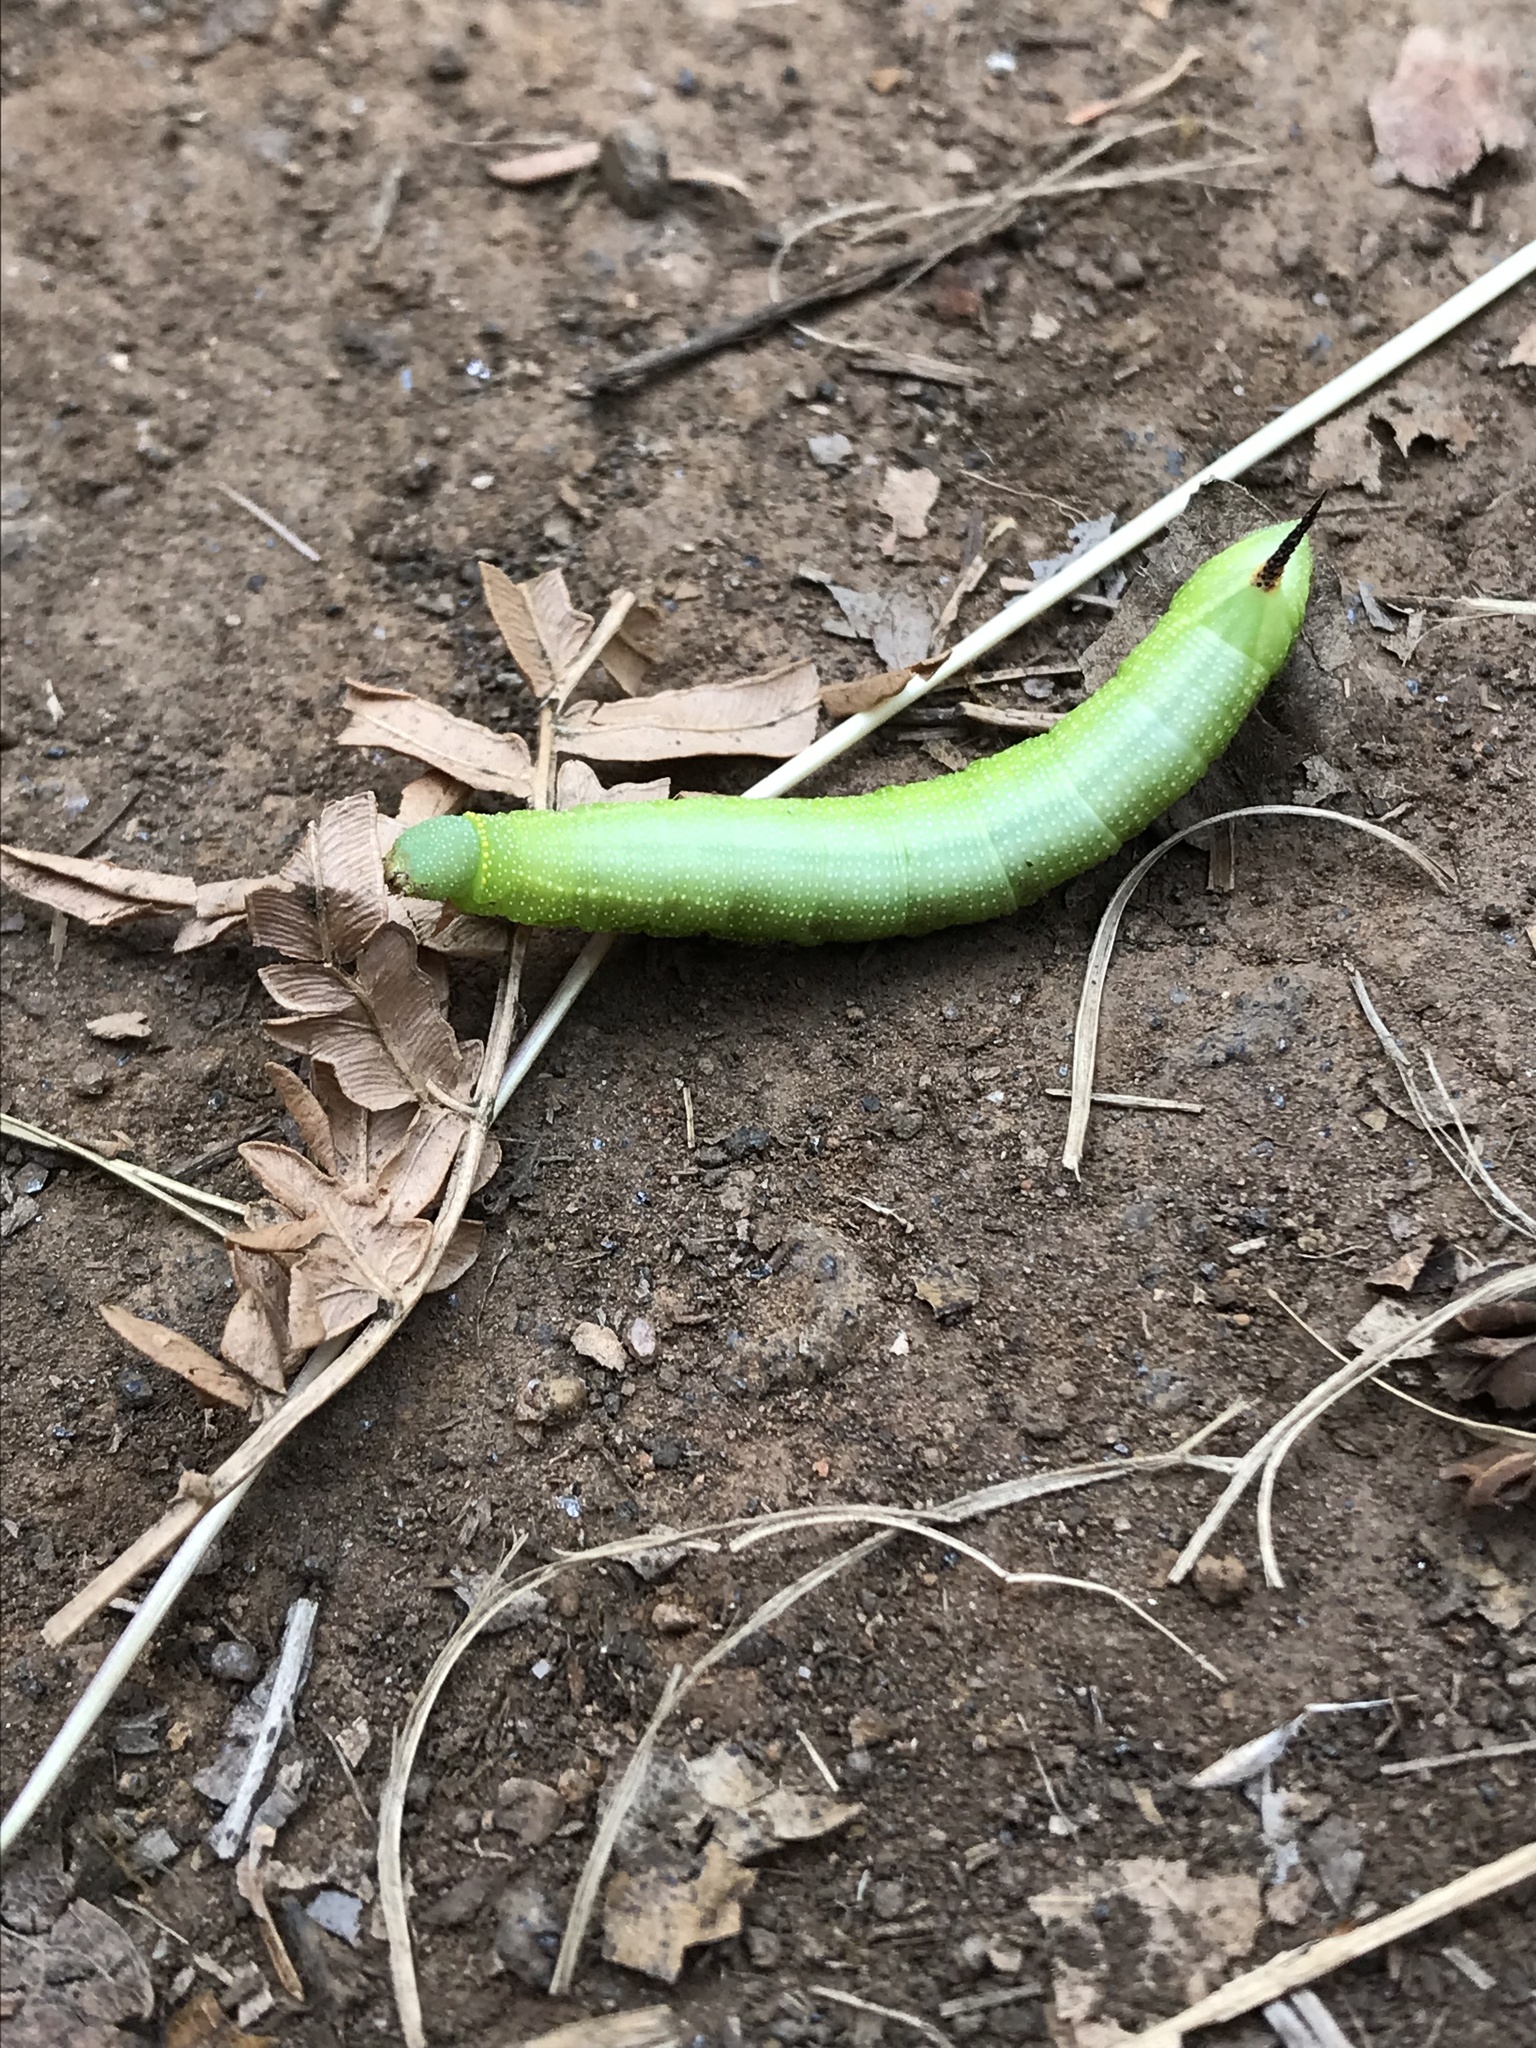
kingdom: Animalia
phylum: Arthropoda
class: Insecta
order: Lepidoptera
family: Sphingidae
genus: Hemaris
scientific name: Hemaris diffinis
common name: Bumblebee moth
